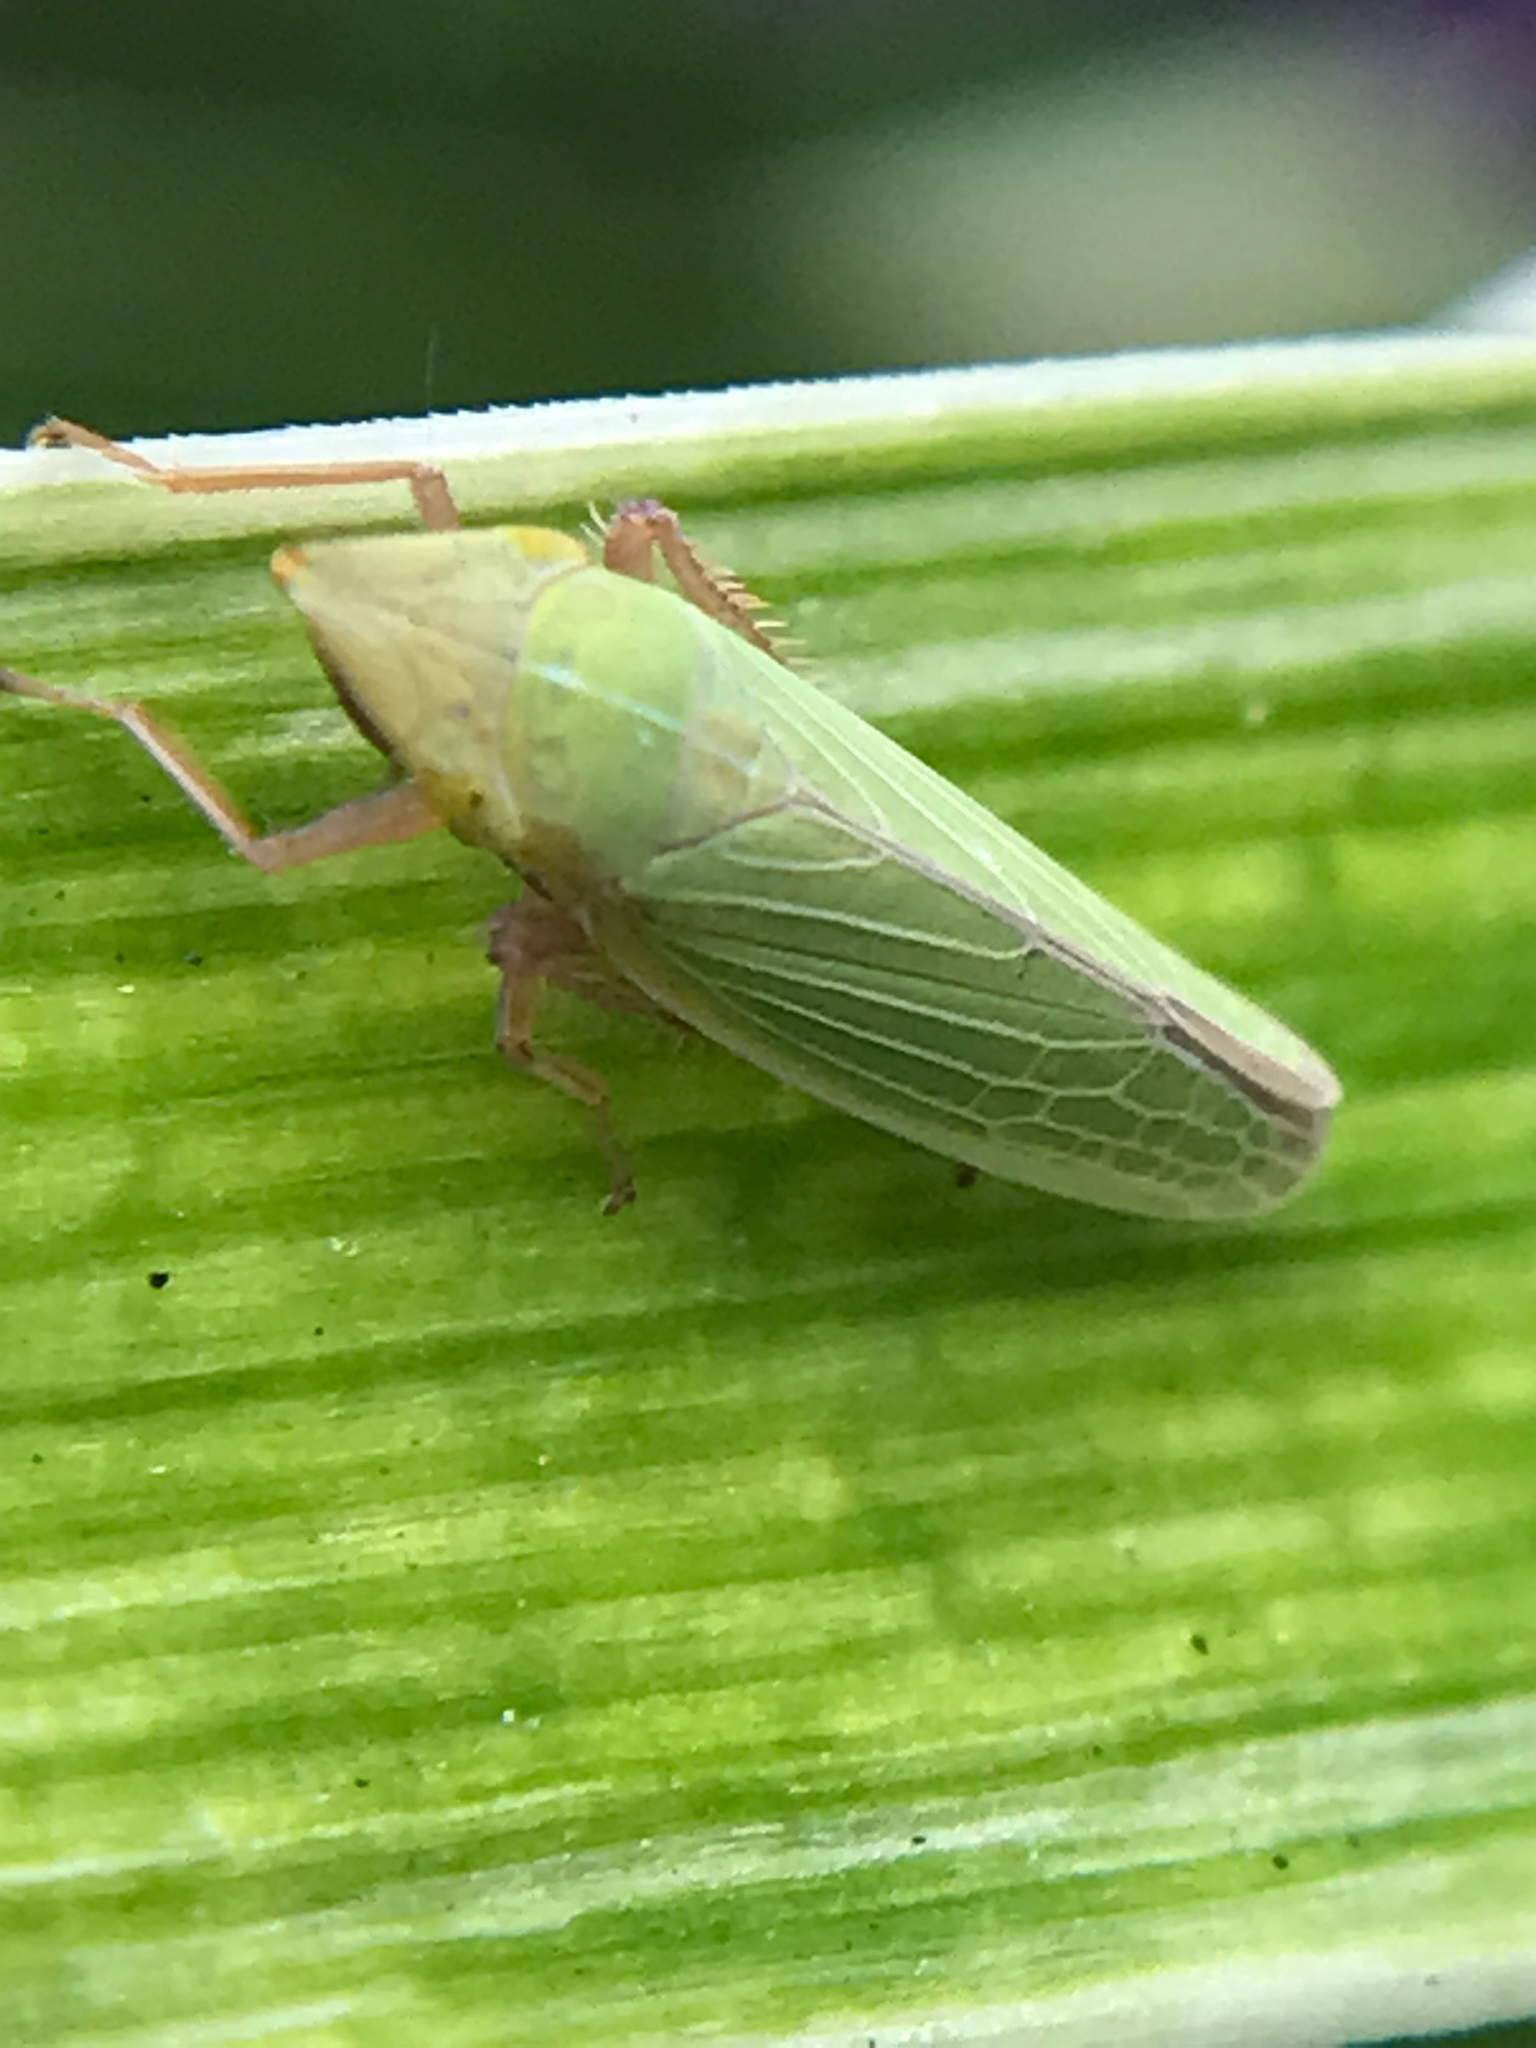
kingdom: Animalia
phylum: Arthropoda
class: Insecta
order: Hemiptera
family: Cicadellidae
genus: Draeculacephala
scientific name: Draeculacephala antica
